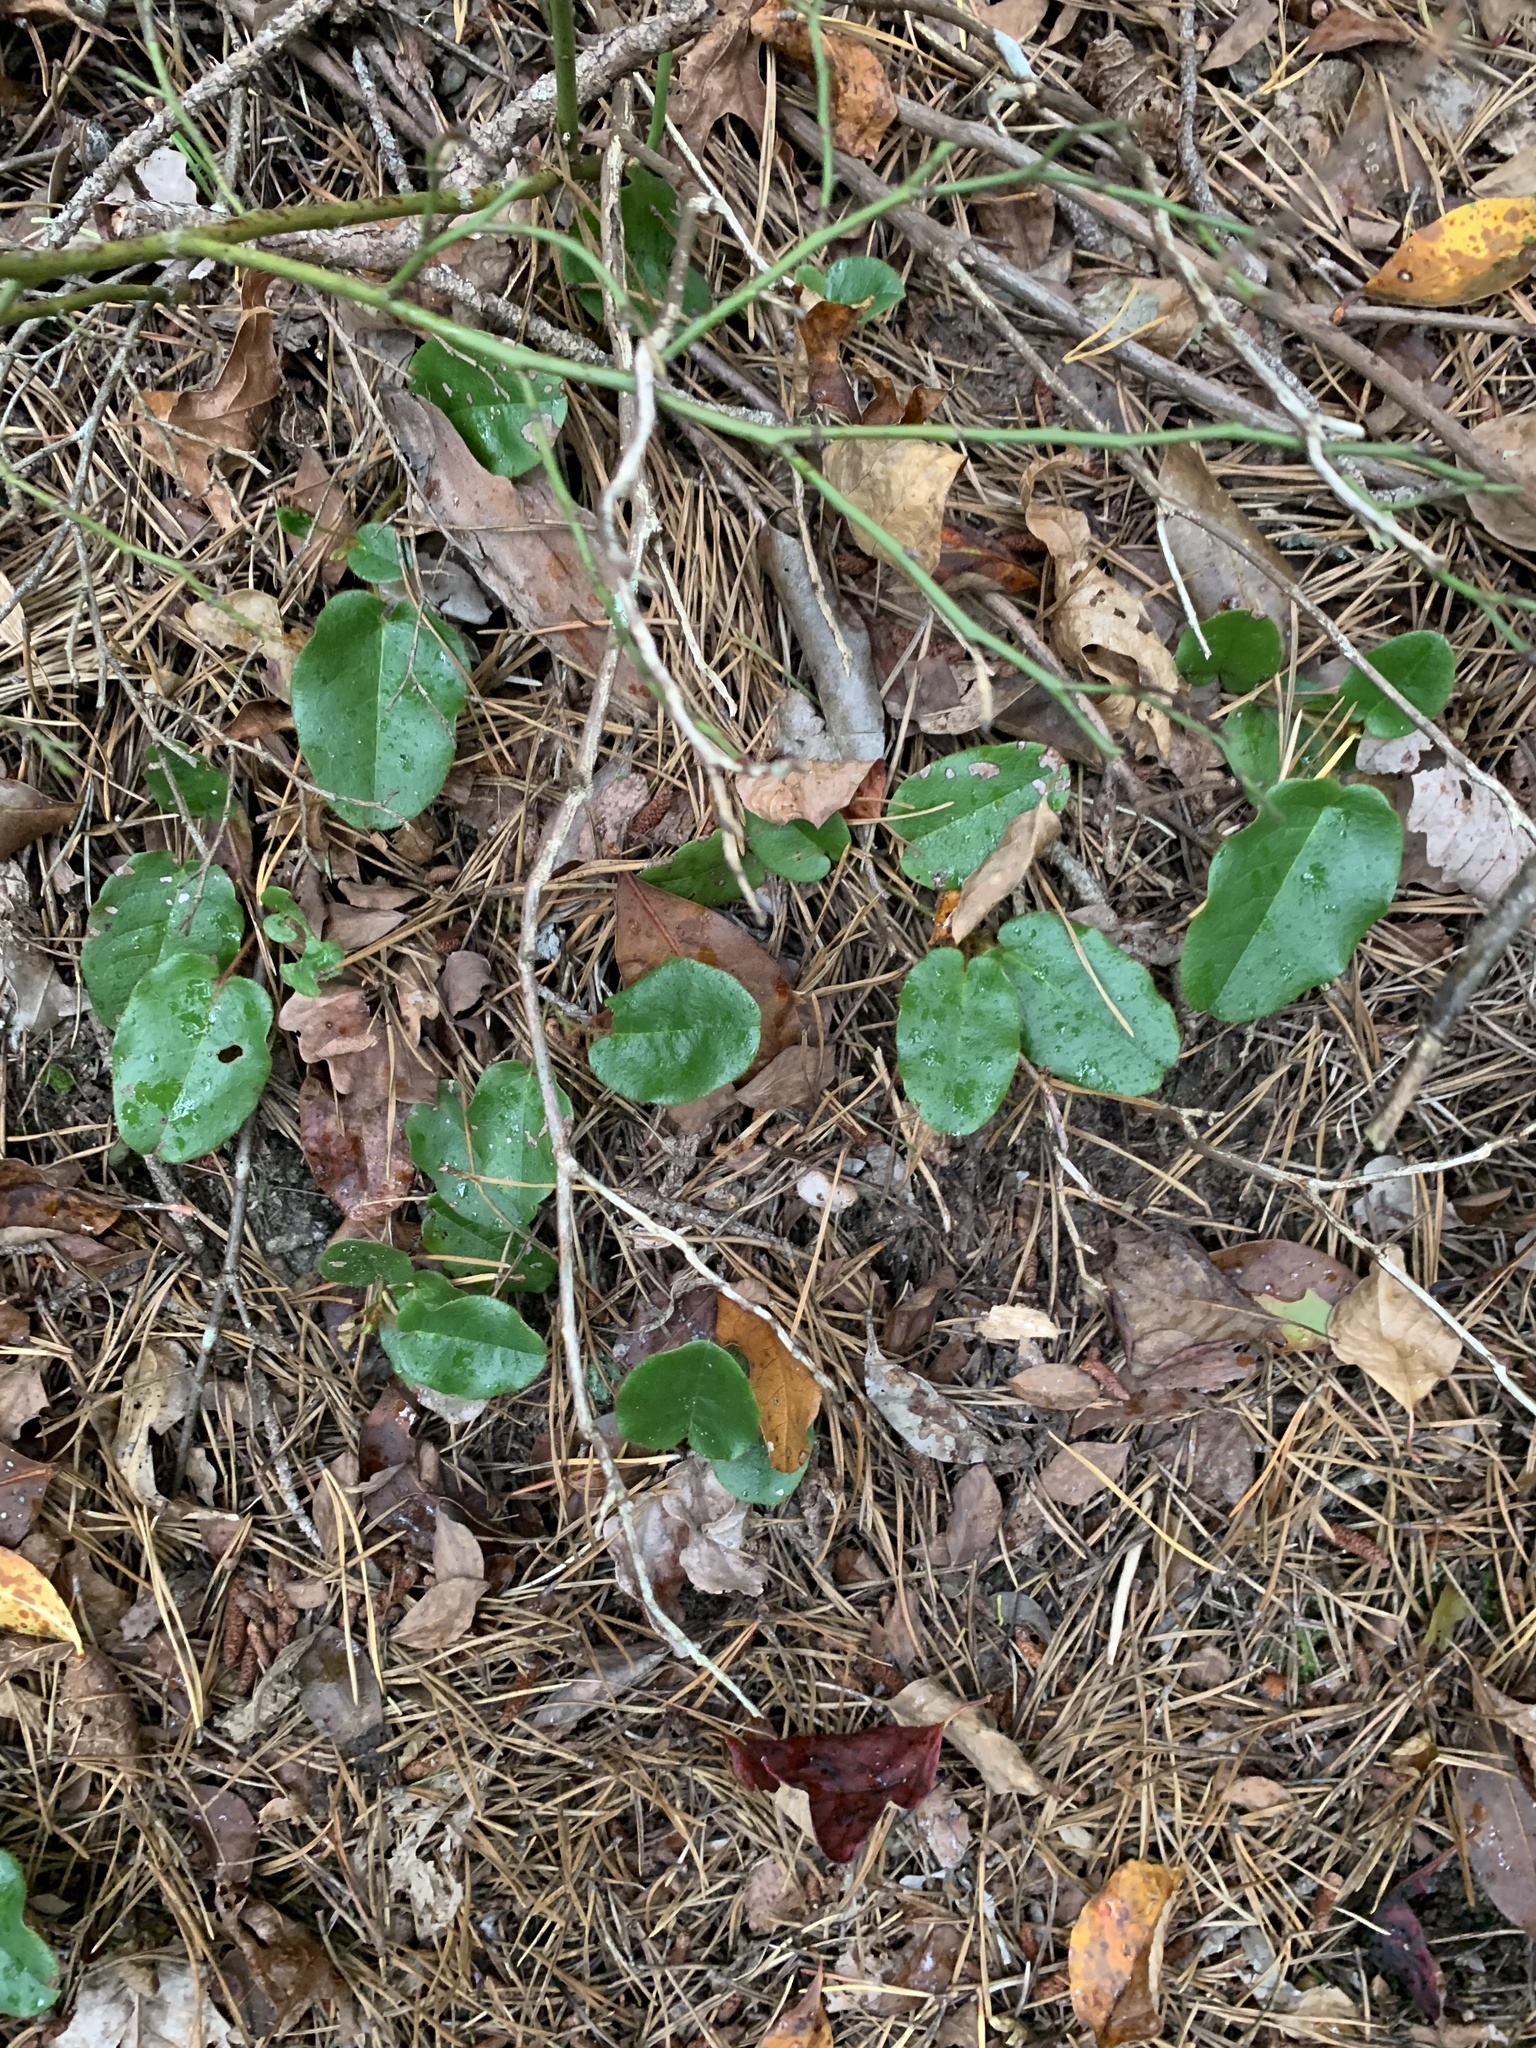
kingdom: Plantae
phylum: Tracheophyta
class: Magnoliopsida
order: Ericales
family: Ericaceae
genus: Epigaea
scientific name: Epigaea repens
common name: Gravelroot
